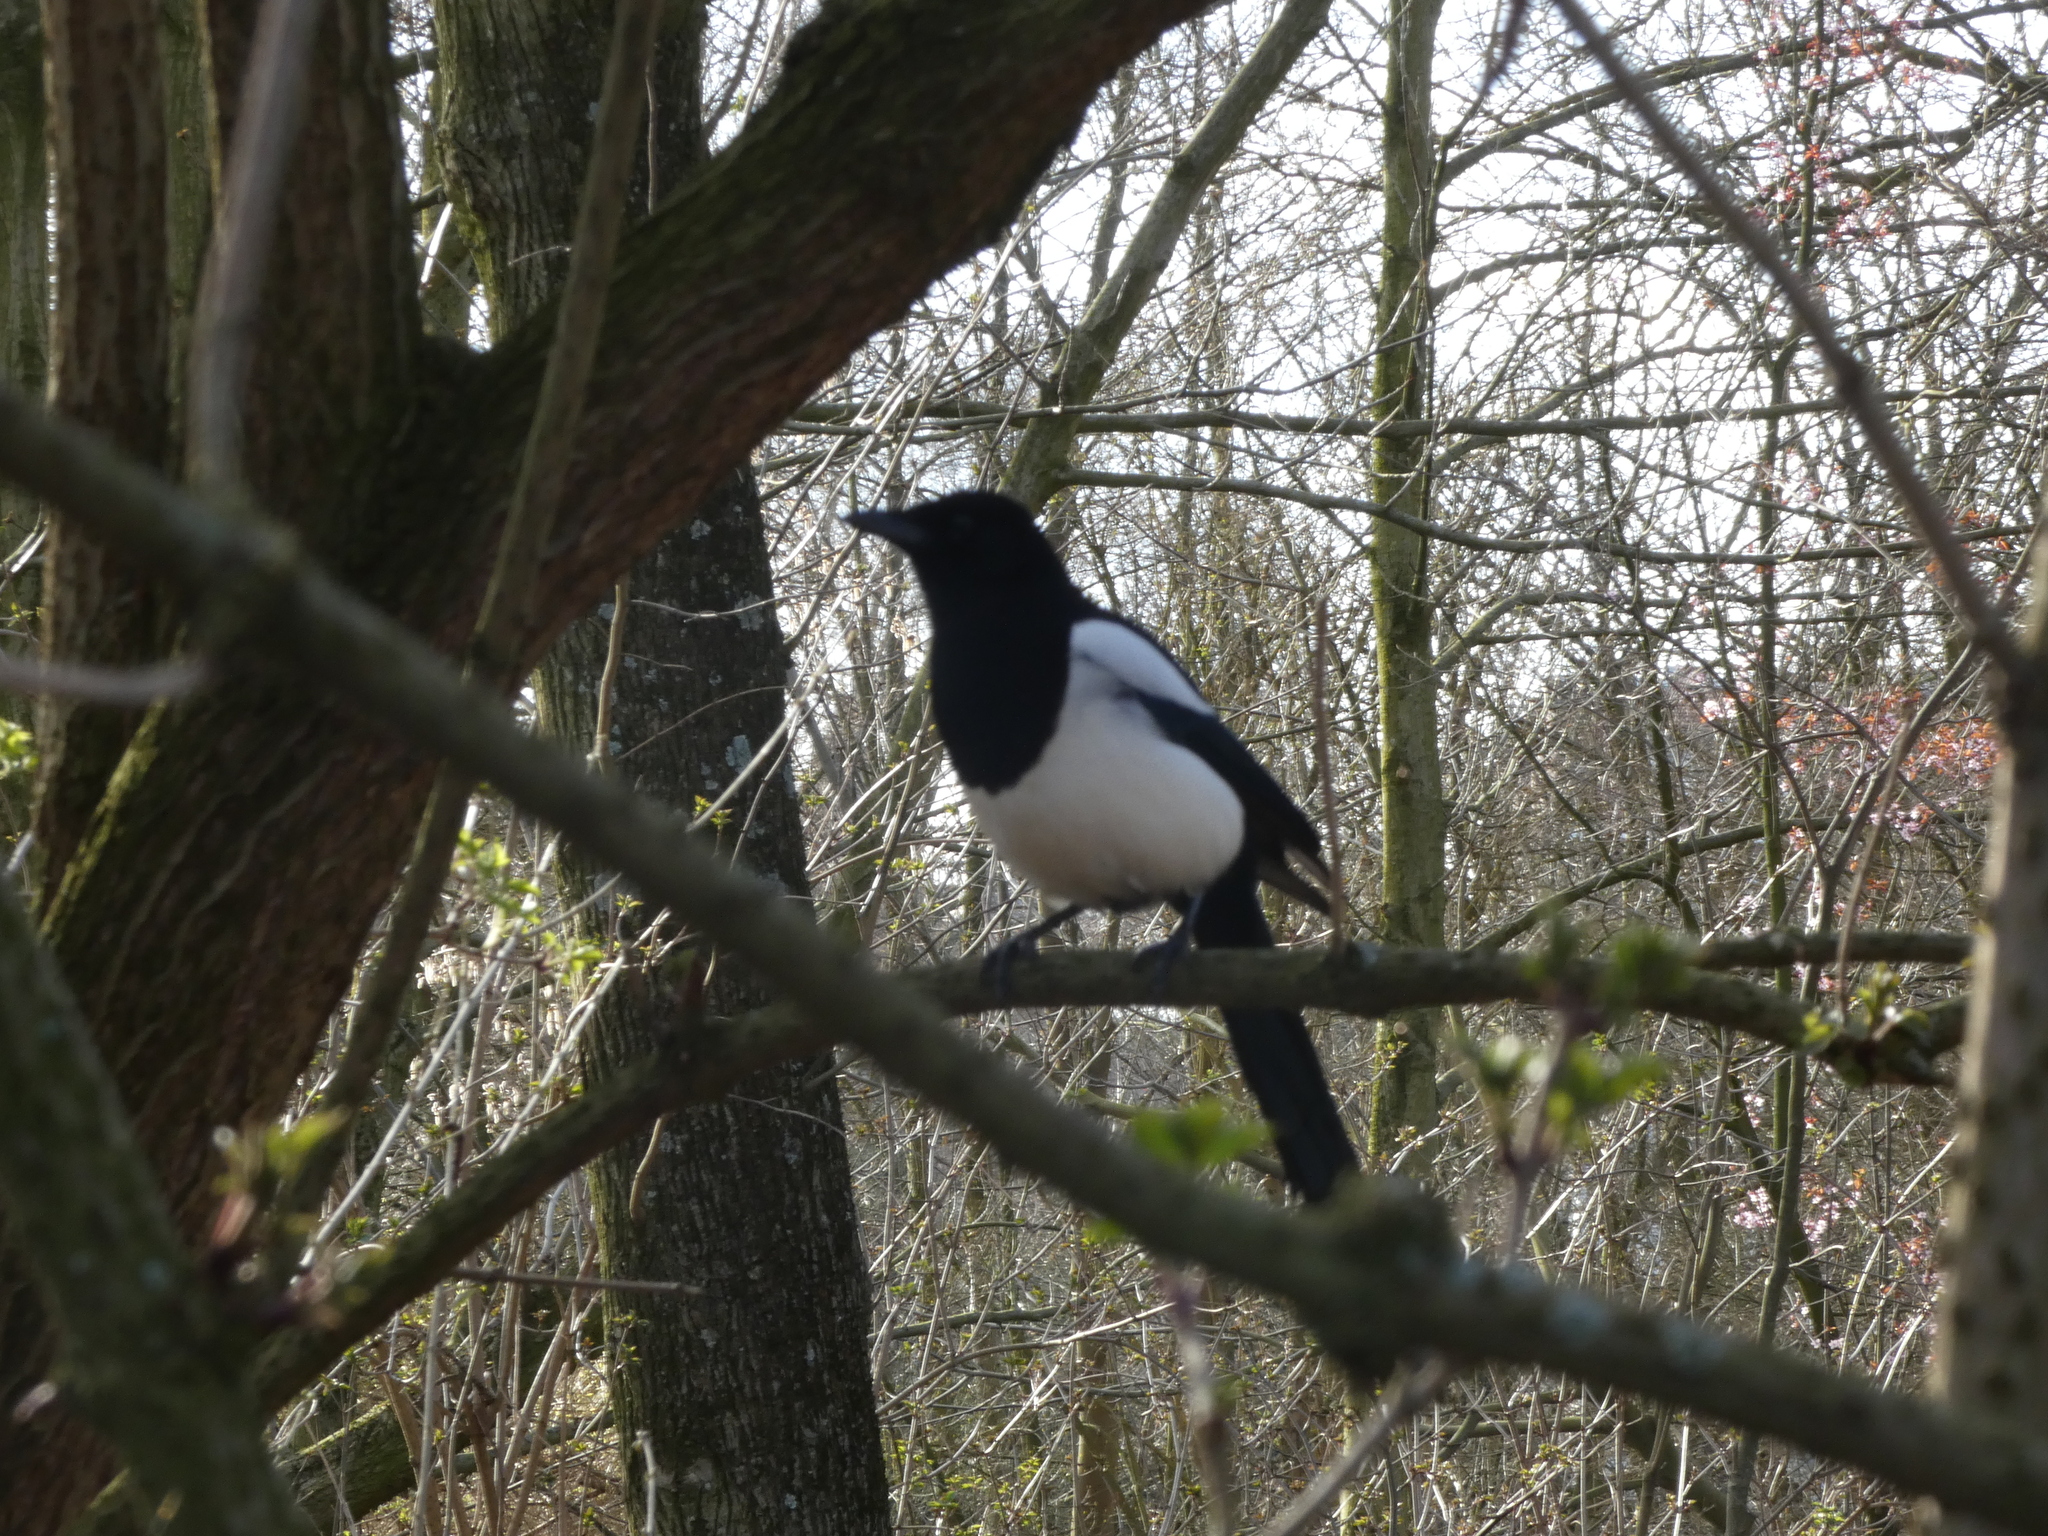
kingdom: Animalia
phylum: Chordata
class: Aves
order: Passeriformes
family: Corvidae
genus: Pica
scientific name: Pica pica
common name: Eurasian magpie
